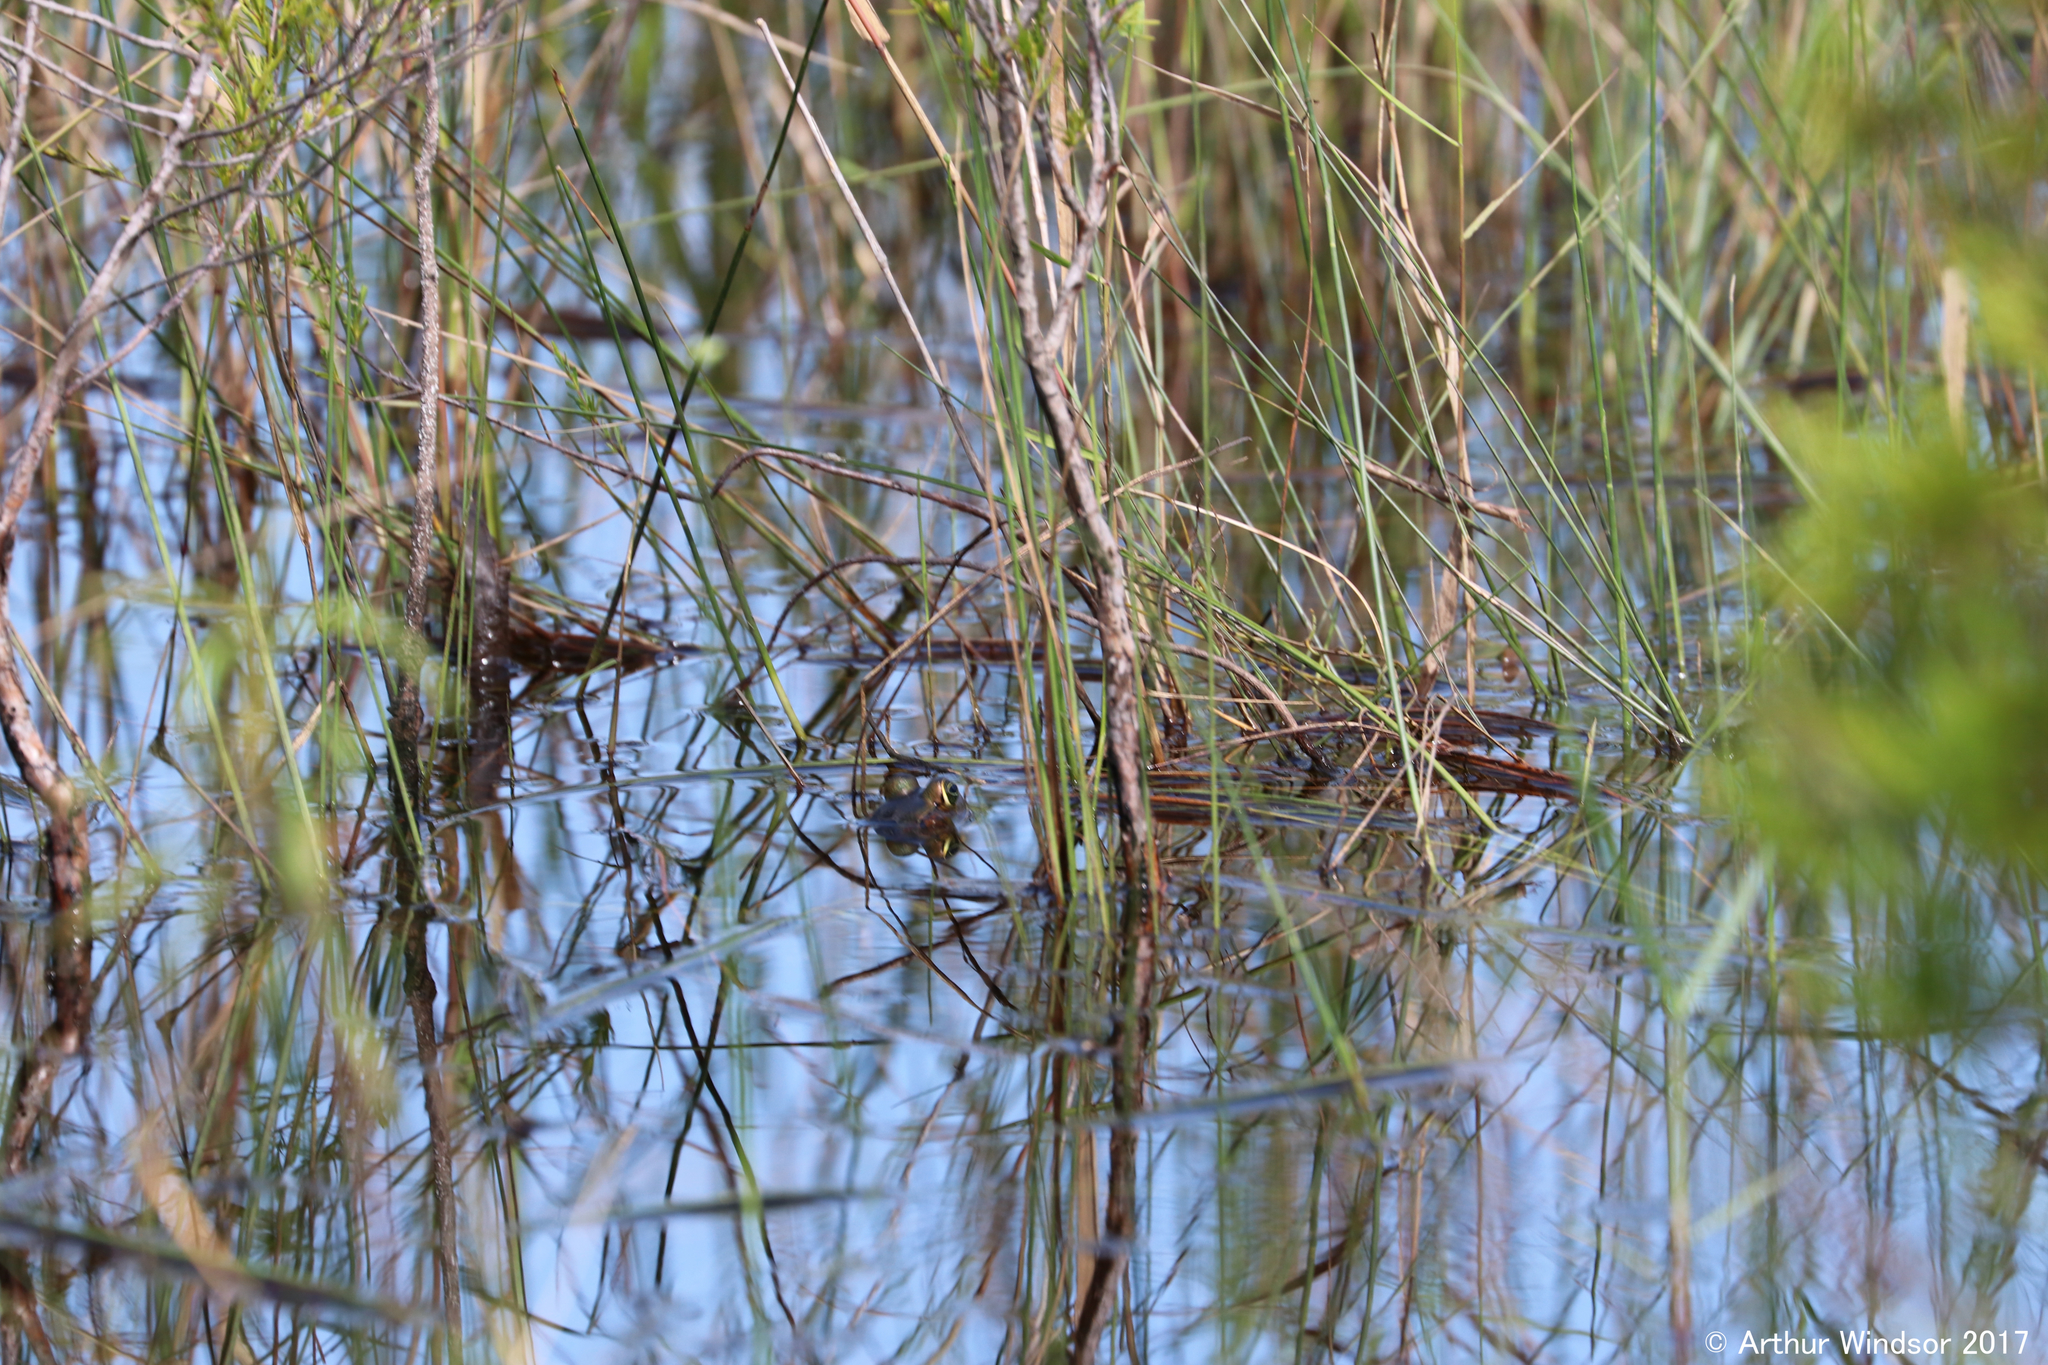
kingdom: Animalia
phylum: Chordata
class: Amphibia
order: Anura
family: Ranidae
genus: Lithobates
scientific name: Lithobates grylio
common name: Pig frog
